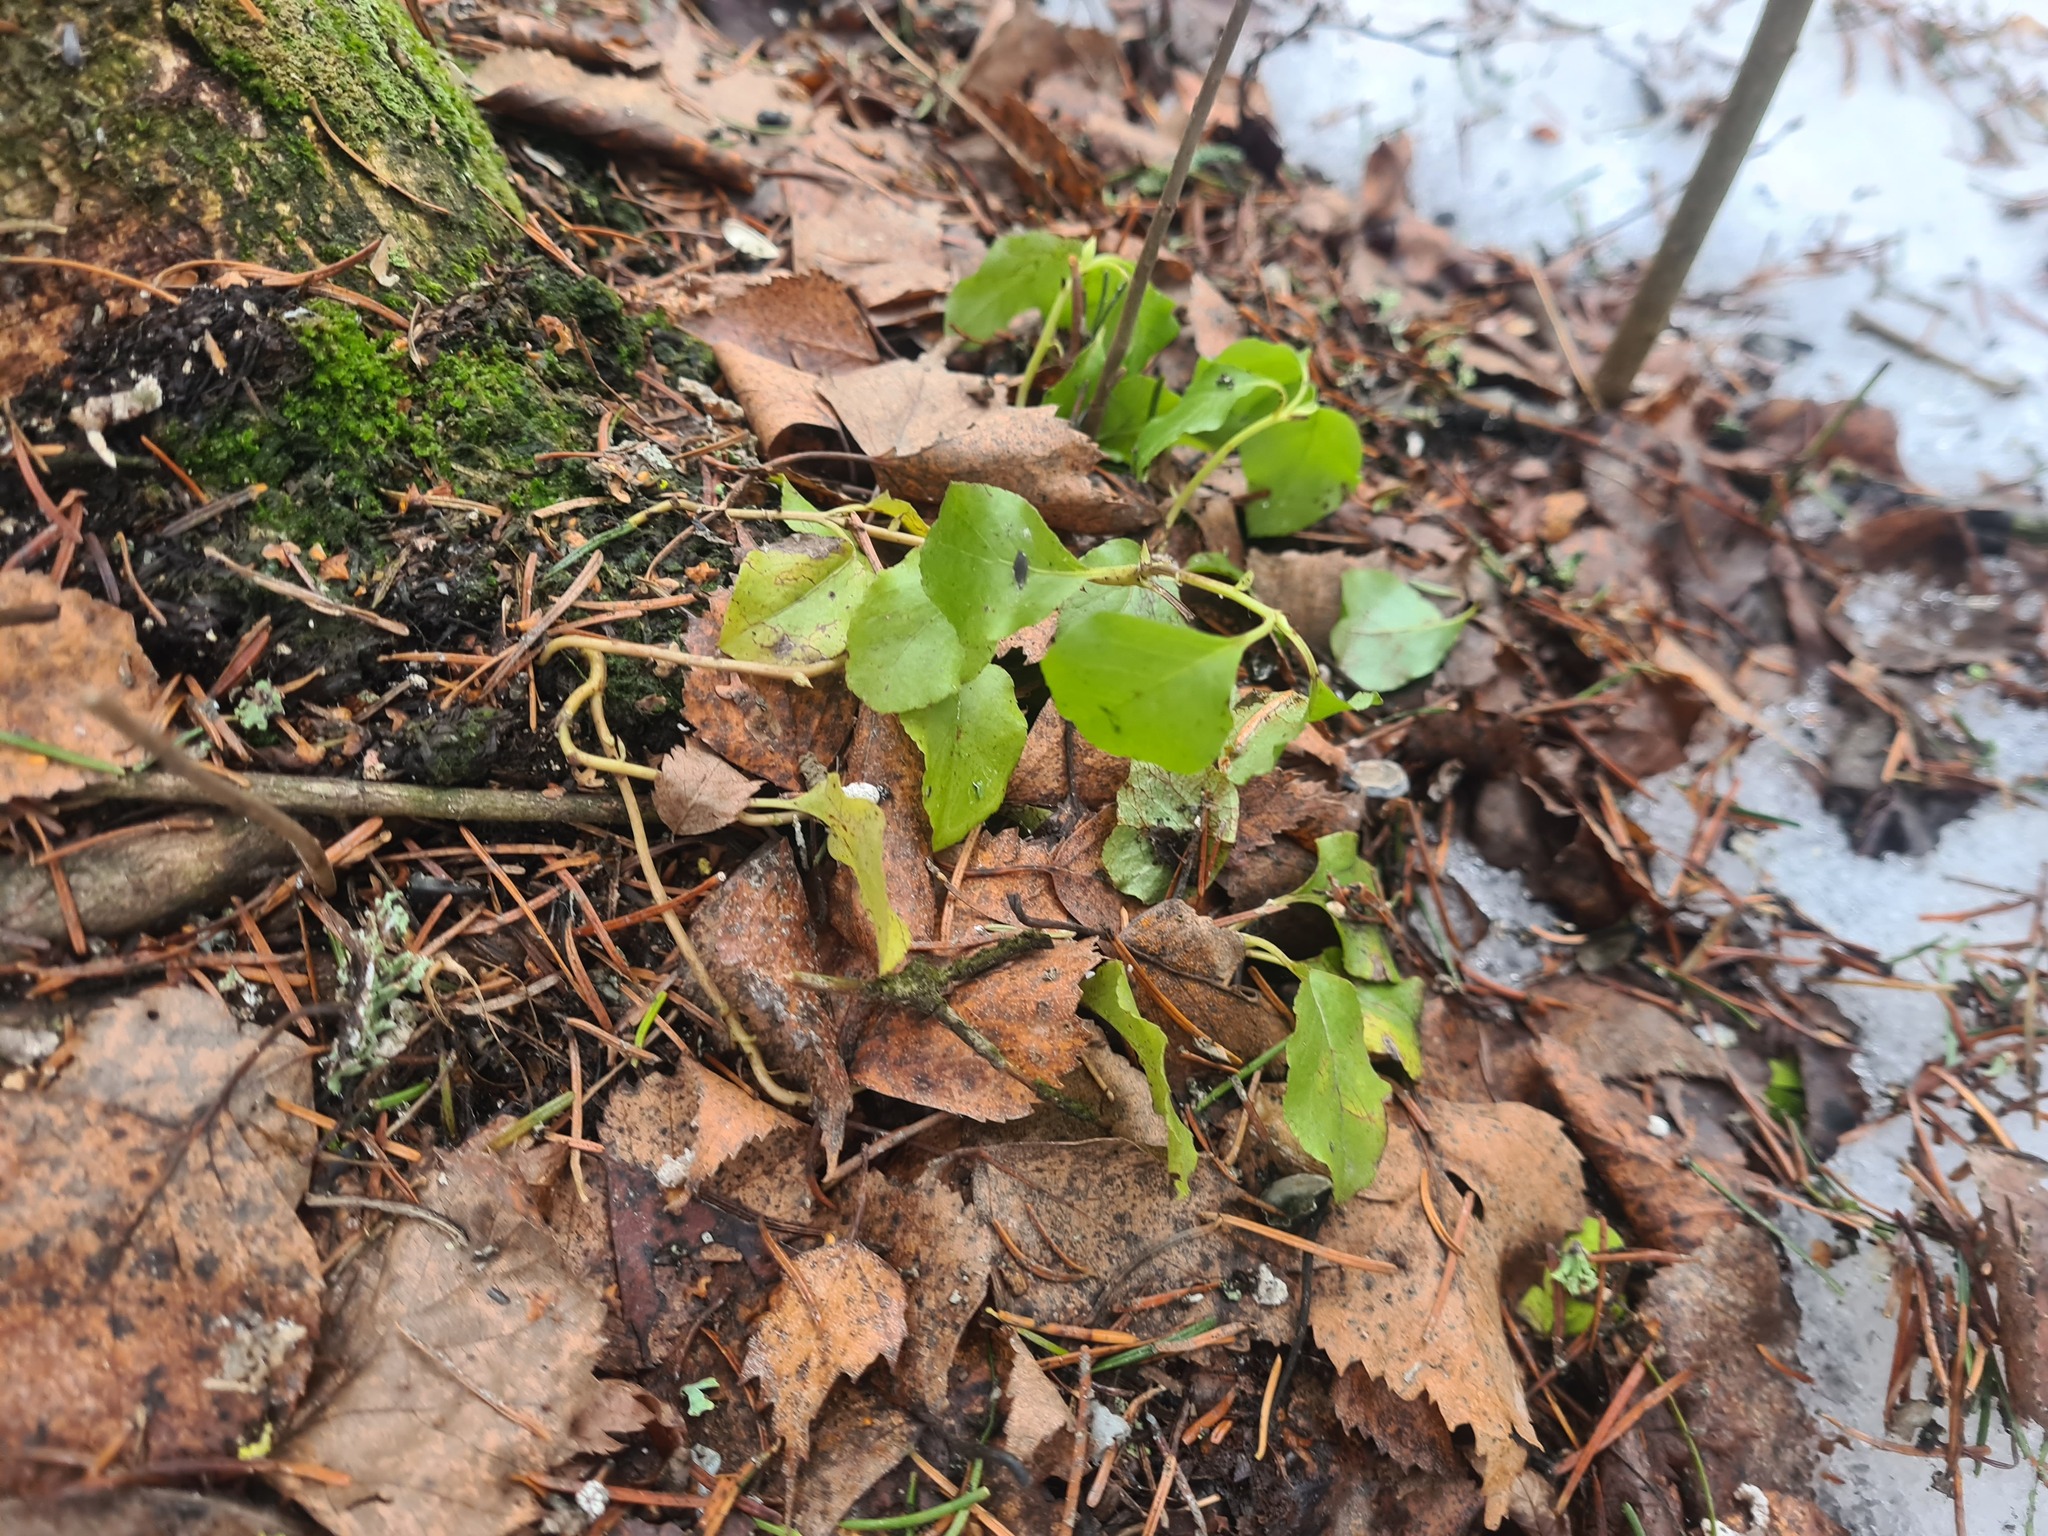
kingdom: Plantae
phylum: Tracheophyta
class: Magnoliopsida
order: Ericales
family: Ericaceae
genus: Orthilia
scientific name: Orthilia secunda
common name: One-sided orthilia
